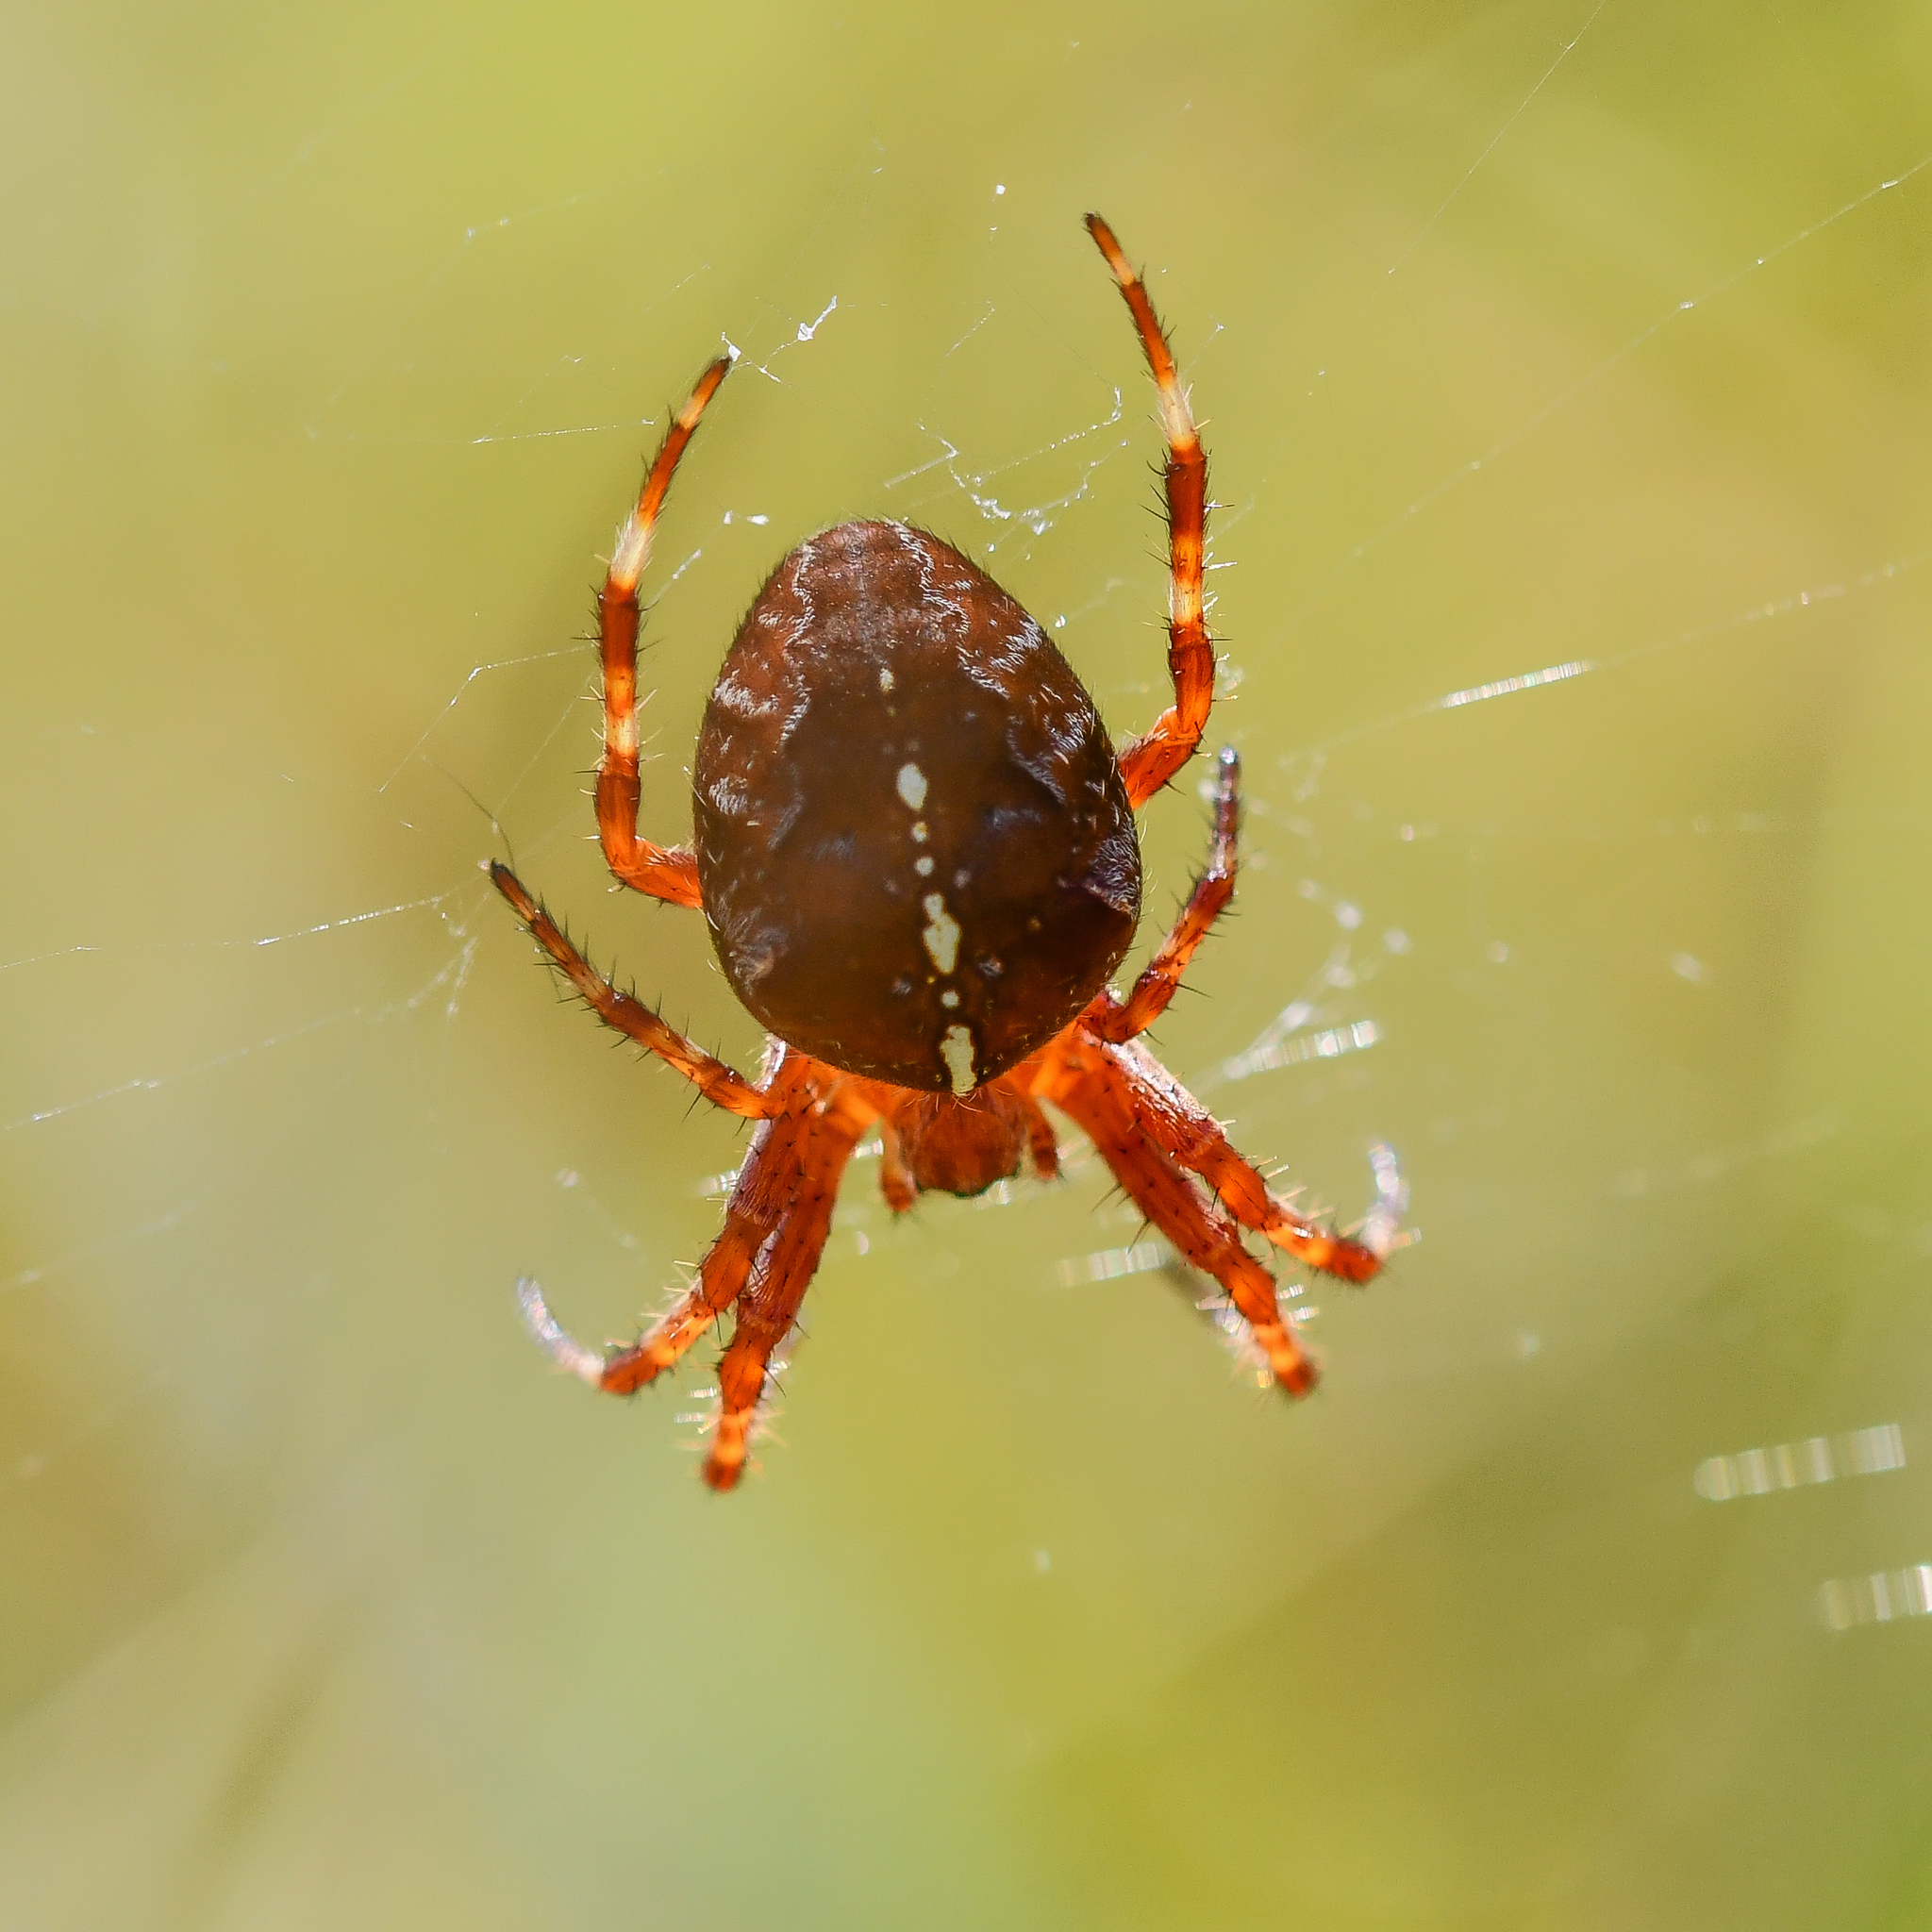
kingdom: Animalia
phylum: Arthropoda
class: Arachnida
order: Araneae
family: Araneidae
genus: Araneus
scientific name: Araneus diadematus
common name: Cross orbweaver
